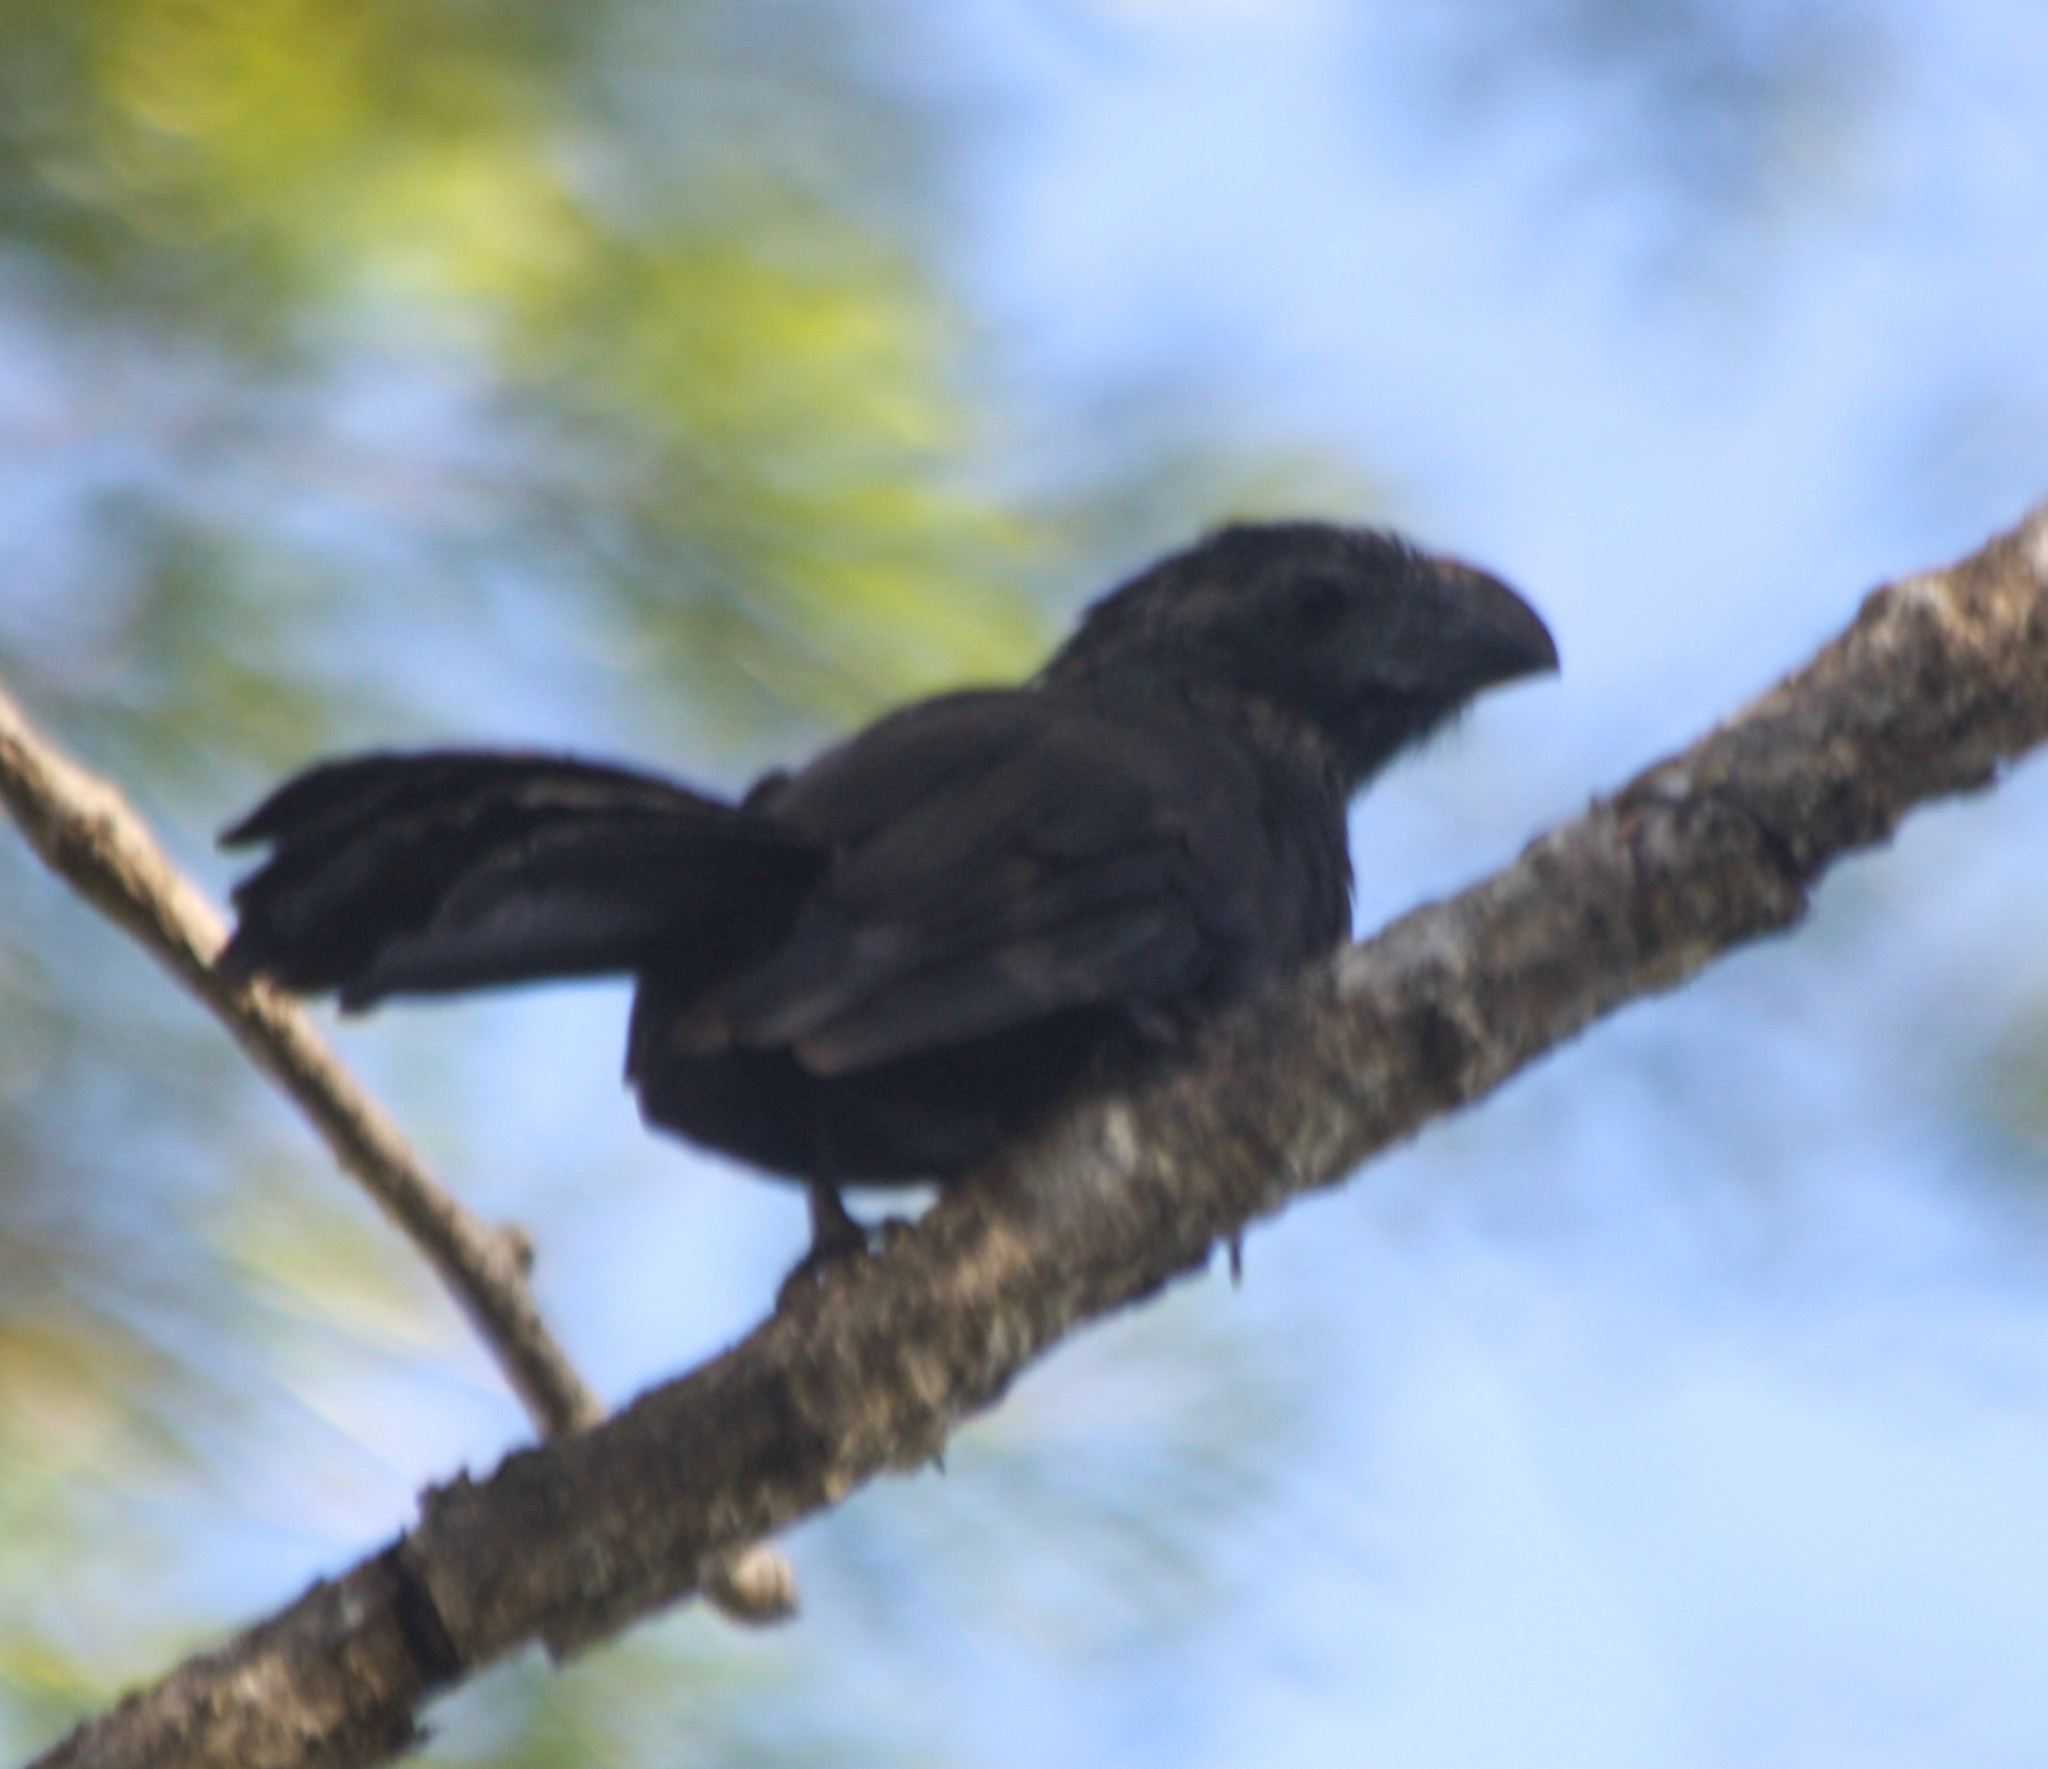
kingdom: Animalia
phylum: Chordata
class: Aves
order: Cuculiformes
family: Cuculidae
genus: Crotophaga
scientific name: Crotophaga sulcirostris
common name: Groove-billed ani
